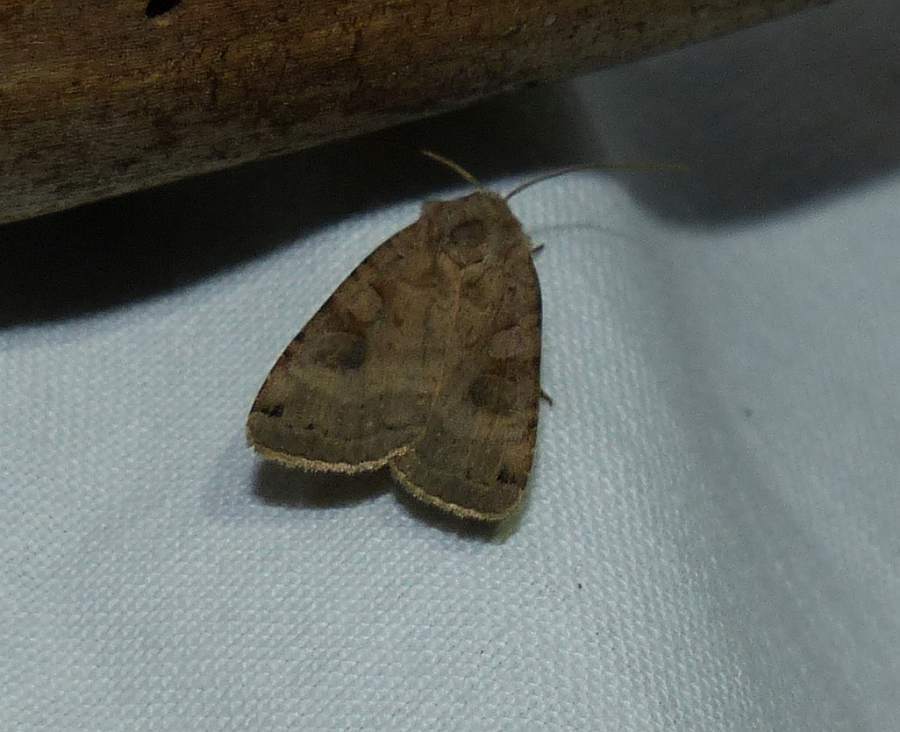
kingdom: Animalia
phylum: Arthropoda
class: Insecta
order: Lepidoptera
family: Noctuidae
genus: Xestia
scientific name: Xestia smithii
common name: Smith's dart
